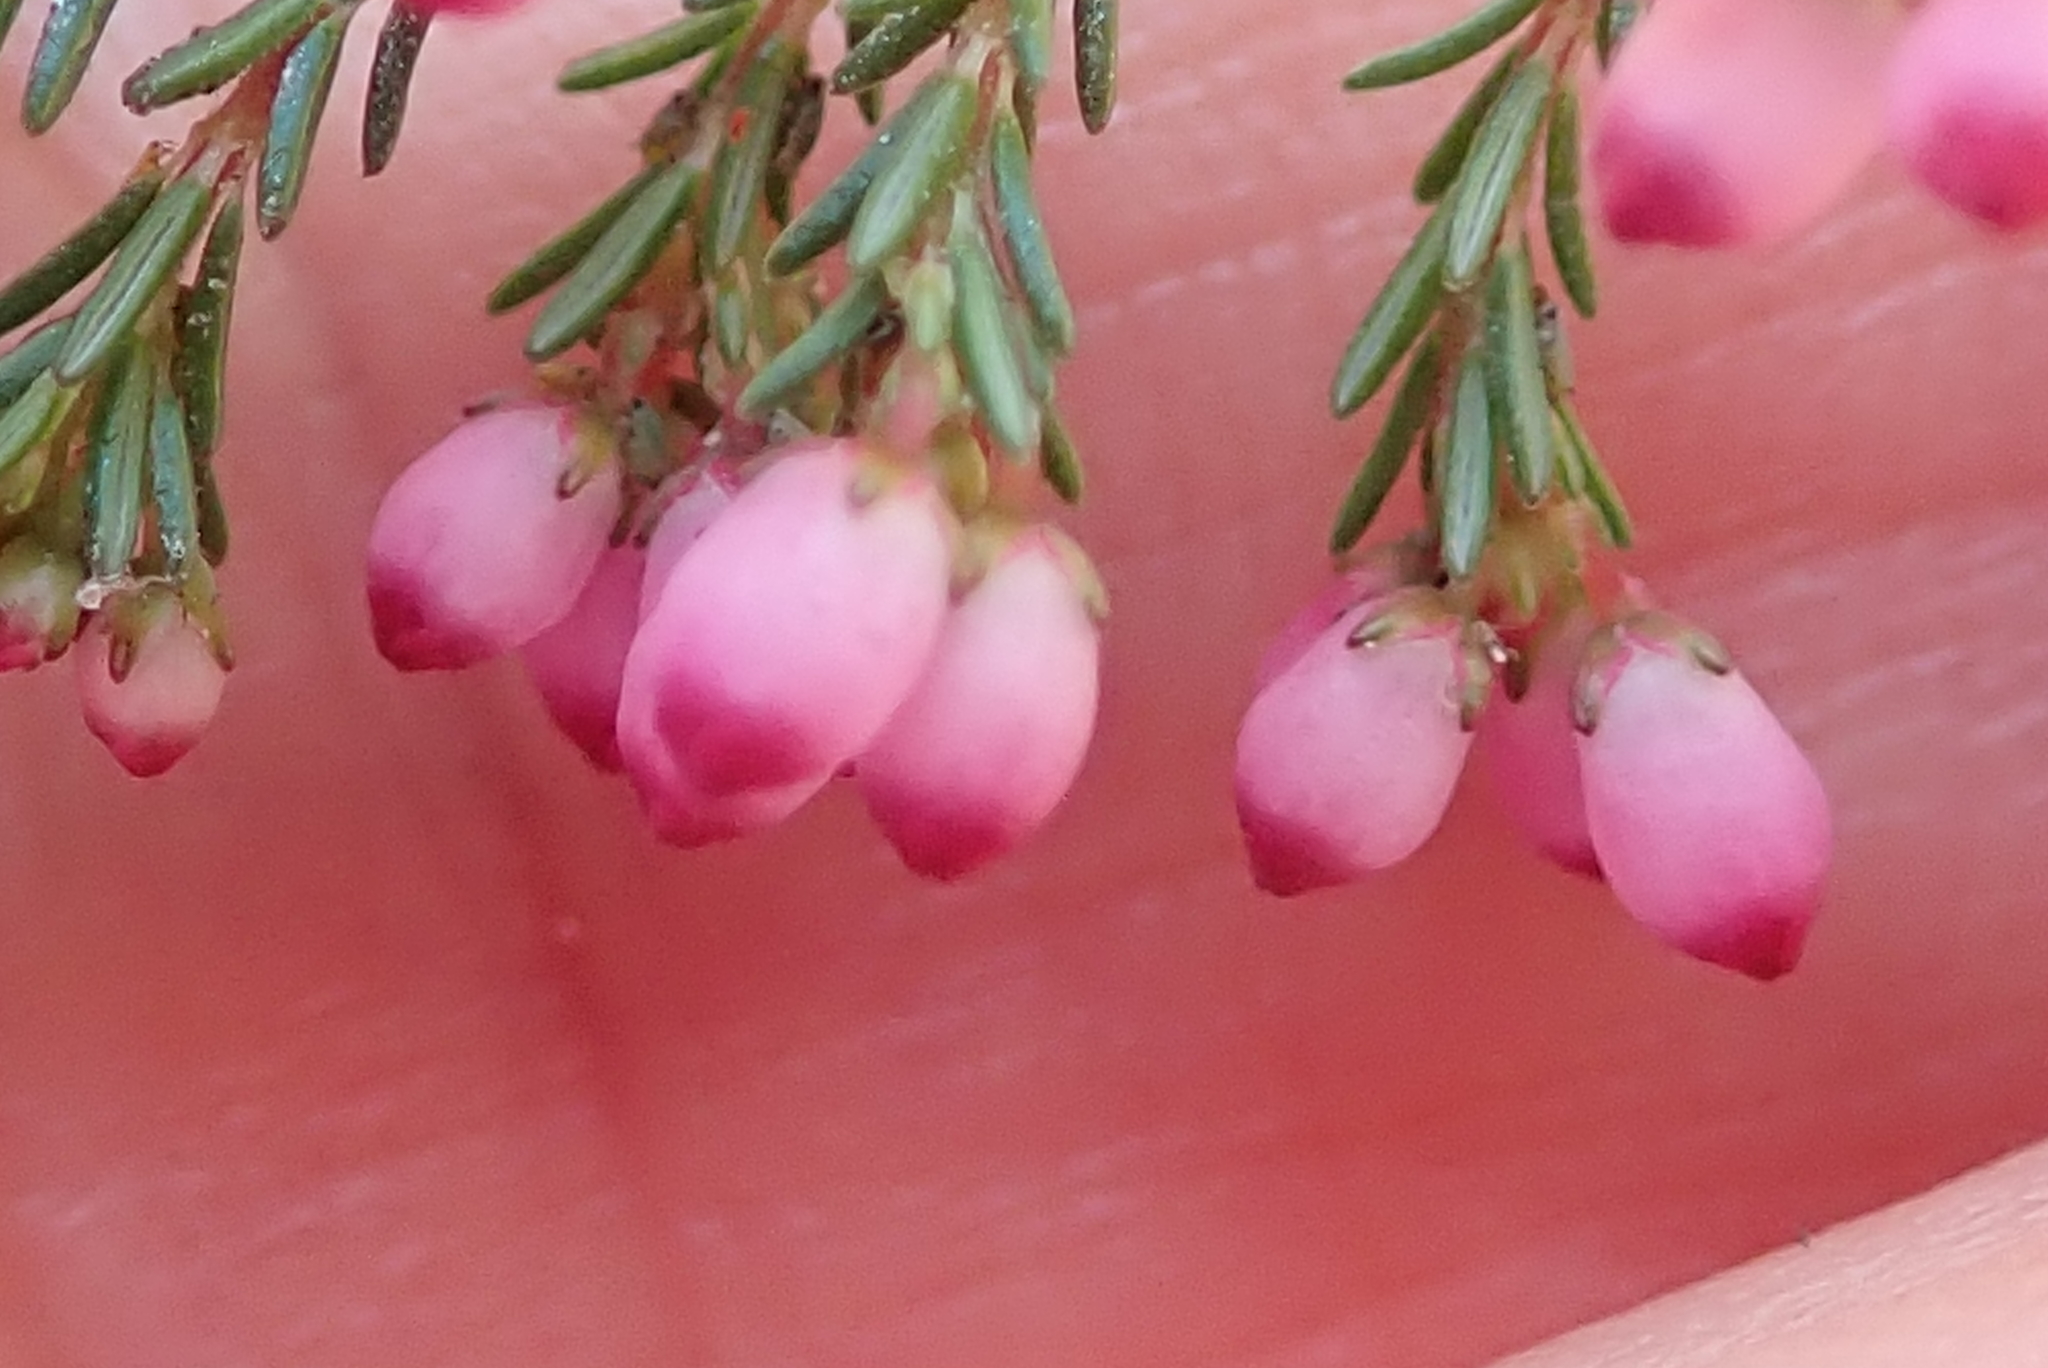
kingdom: Plantae
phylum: Tracheophyta
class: Magnoliopsida
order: Ericales
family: Ericaceae
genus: Erica
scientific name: Erica gracilis
